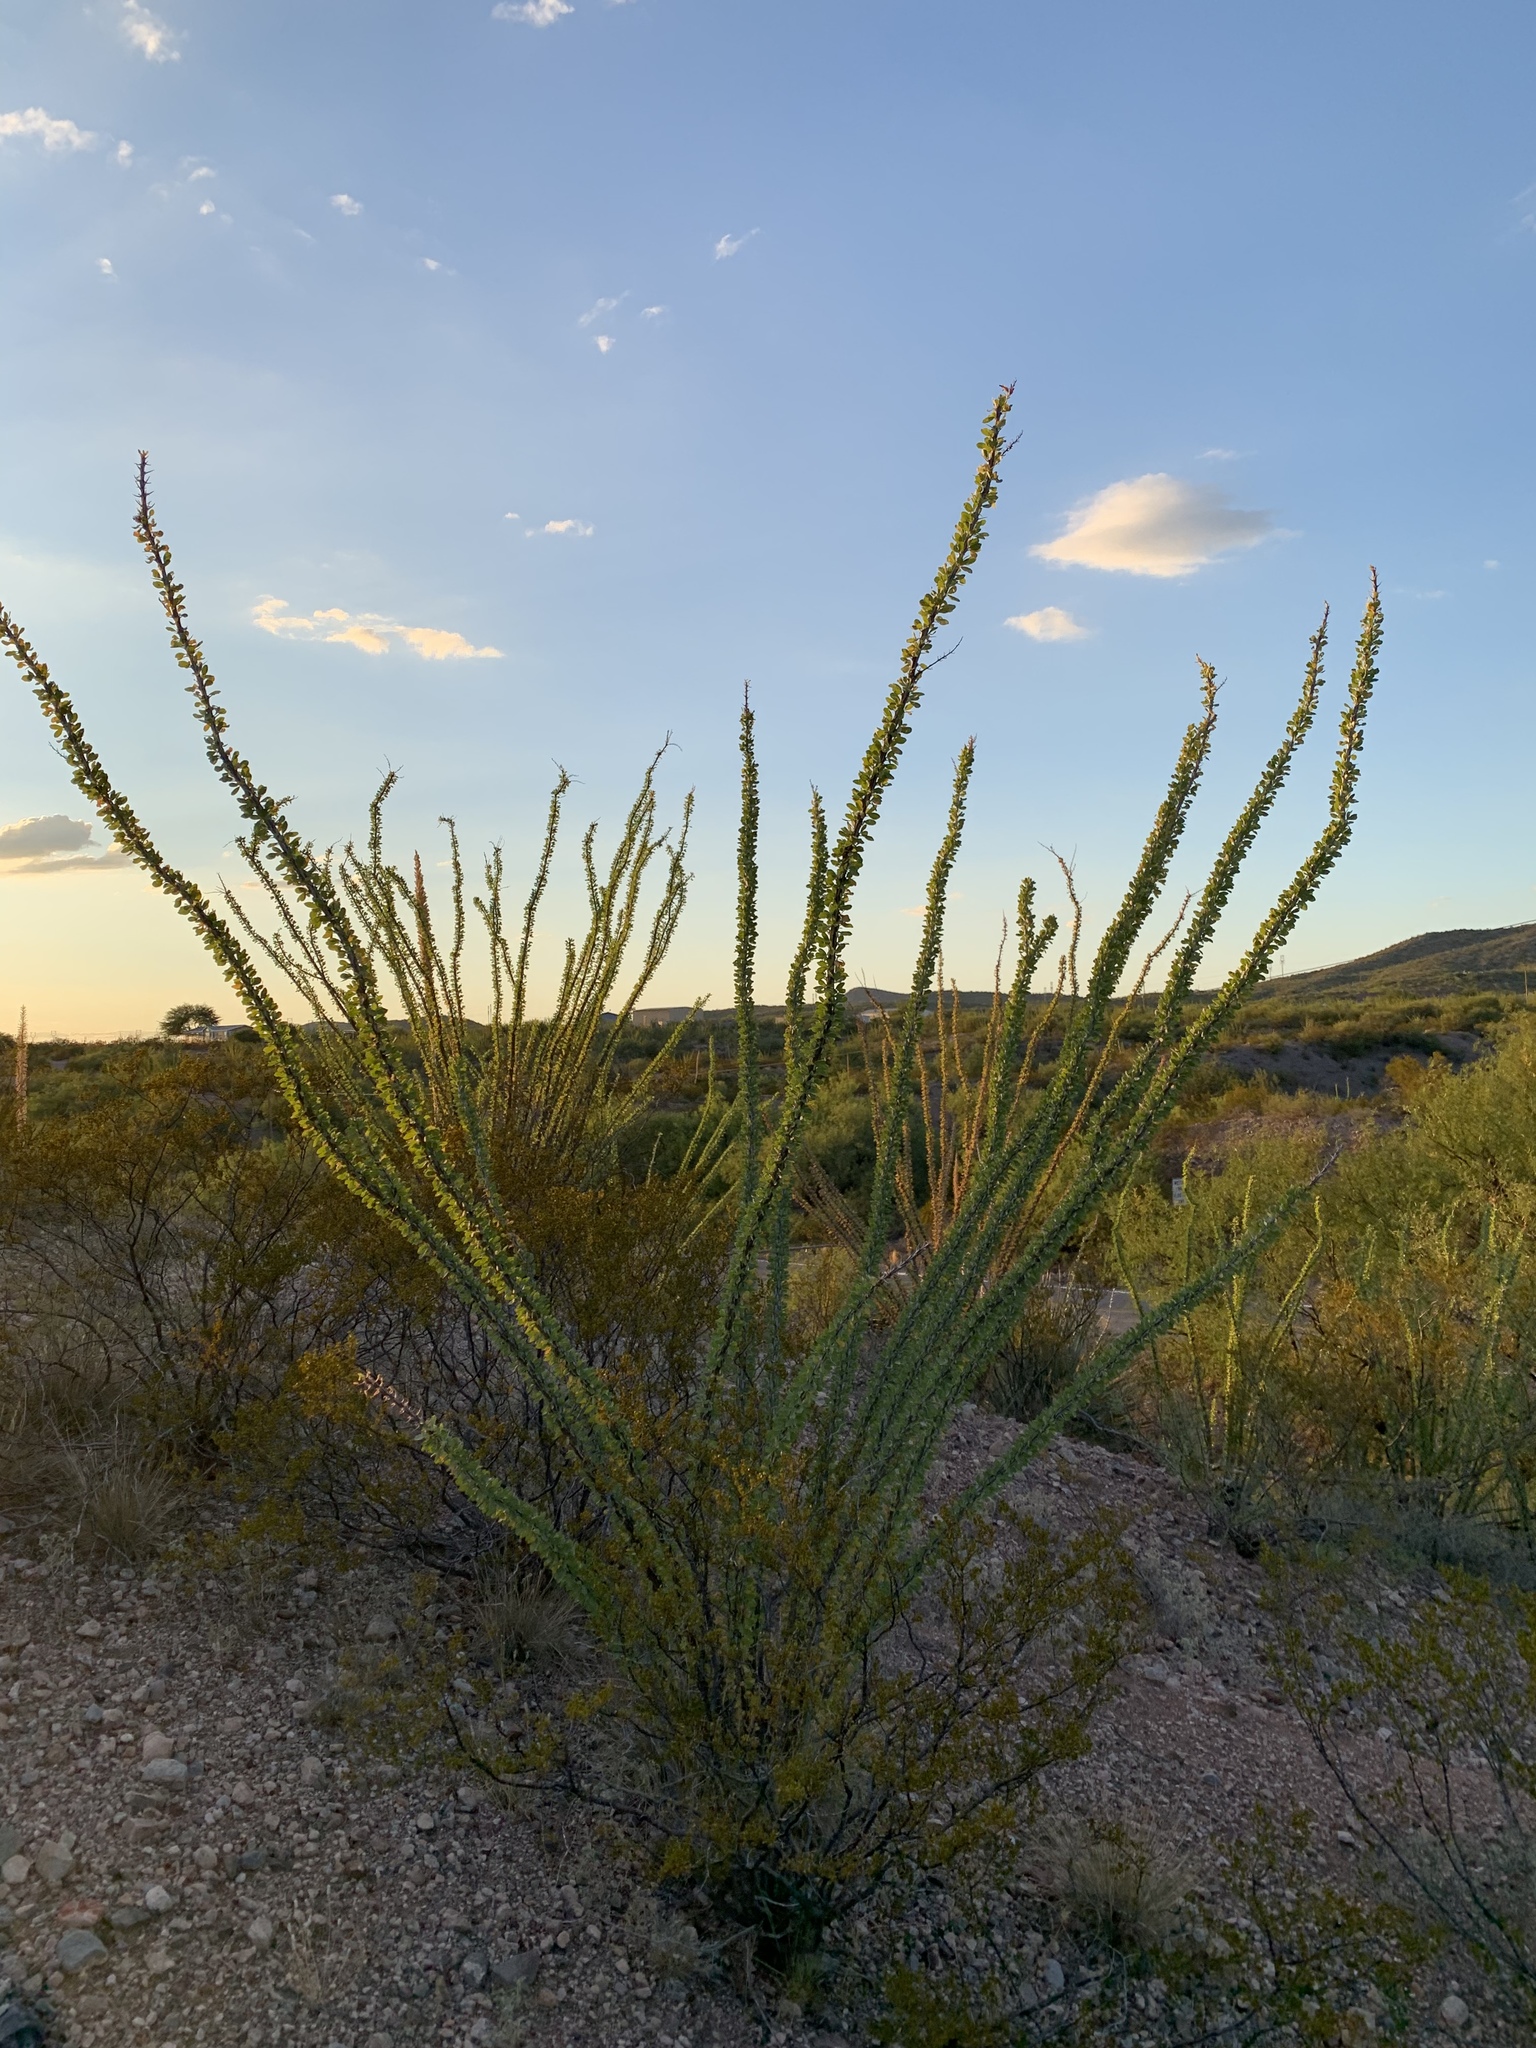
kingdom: Plantae
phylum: Tracheophyta
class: Magnoliopsida
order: Ericales
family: Fouquieriaceae
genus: Fouquieria
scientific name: Fouquieria splendens
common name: Vine-cactus
